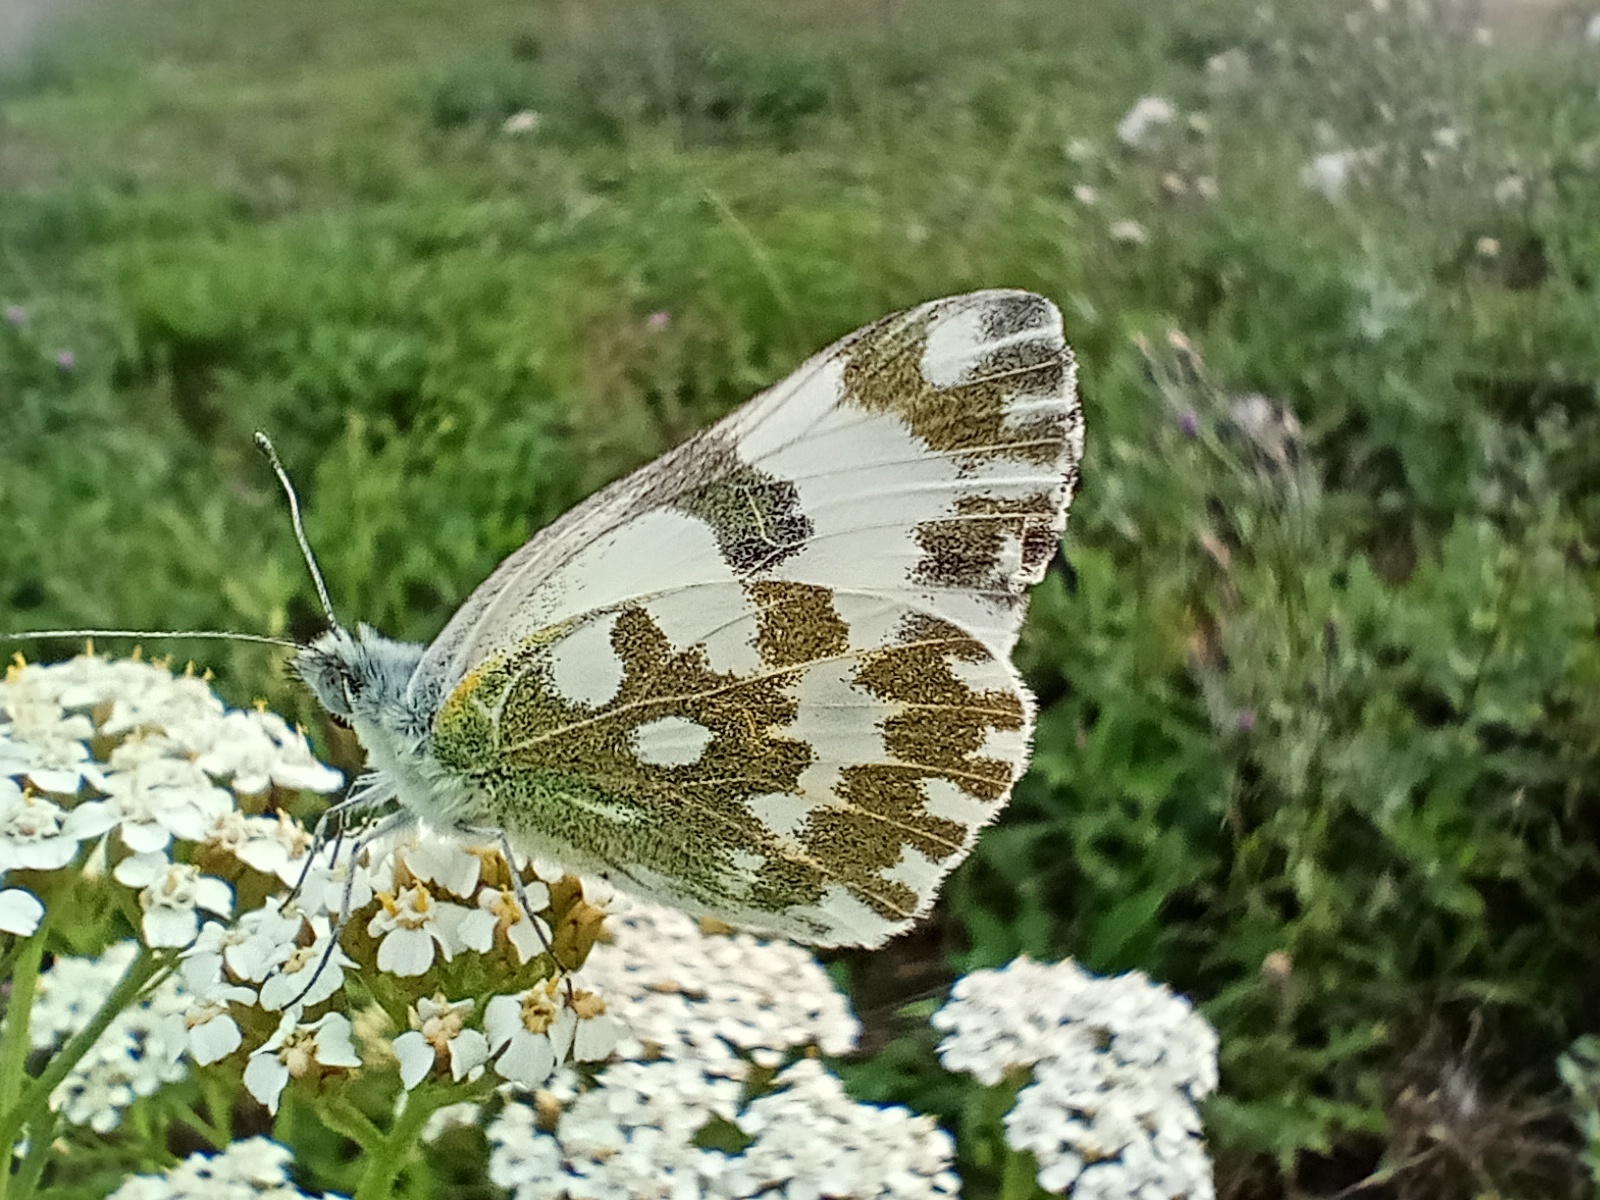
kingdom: Animalia
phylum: Arthropoda
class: Insecta
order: Lepidoptera
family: Pieridae
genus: Pontia
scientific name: Pontia edusa
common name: Eastern bath white
